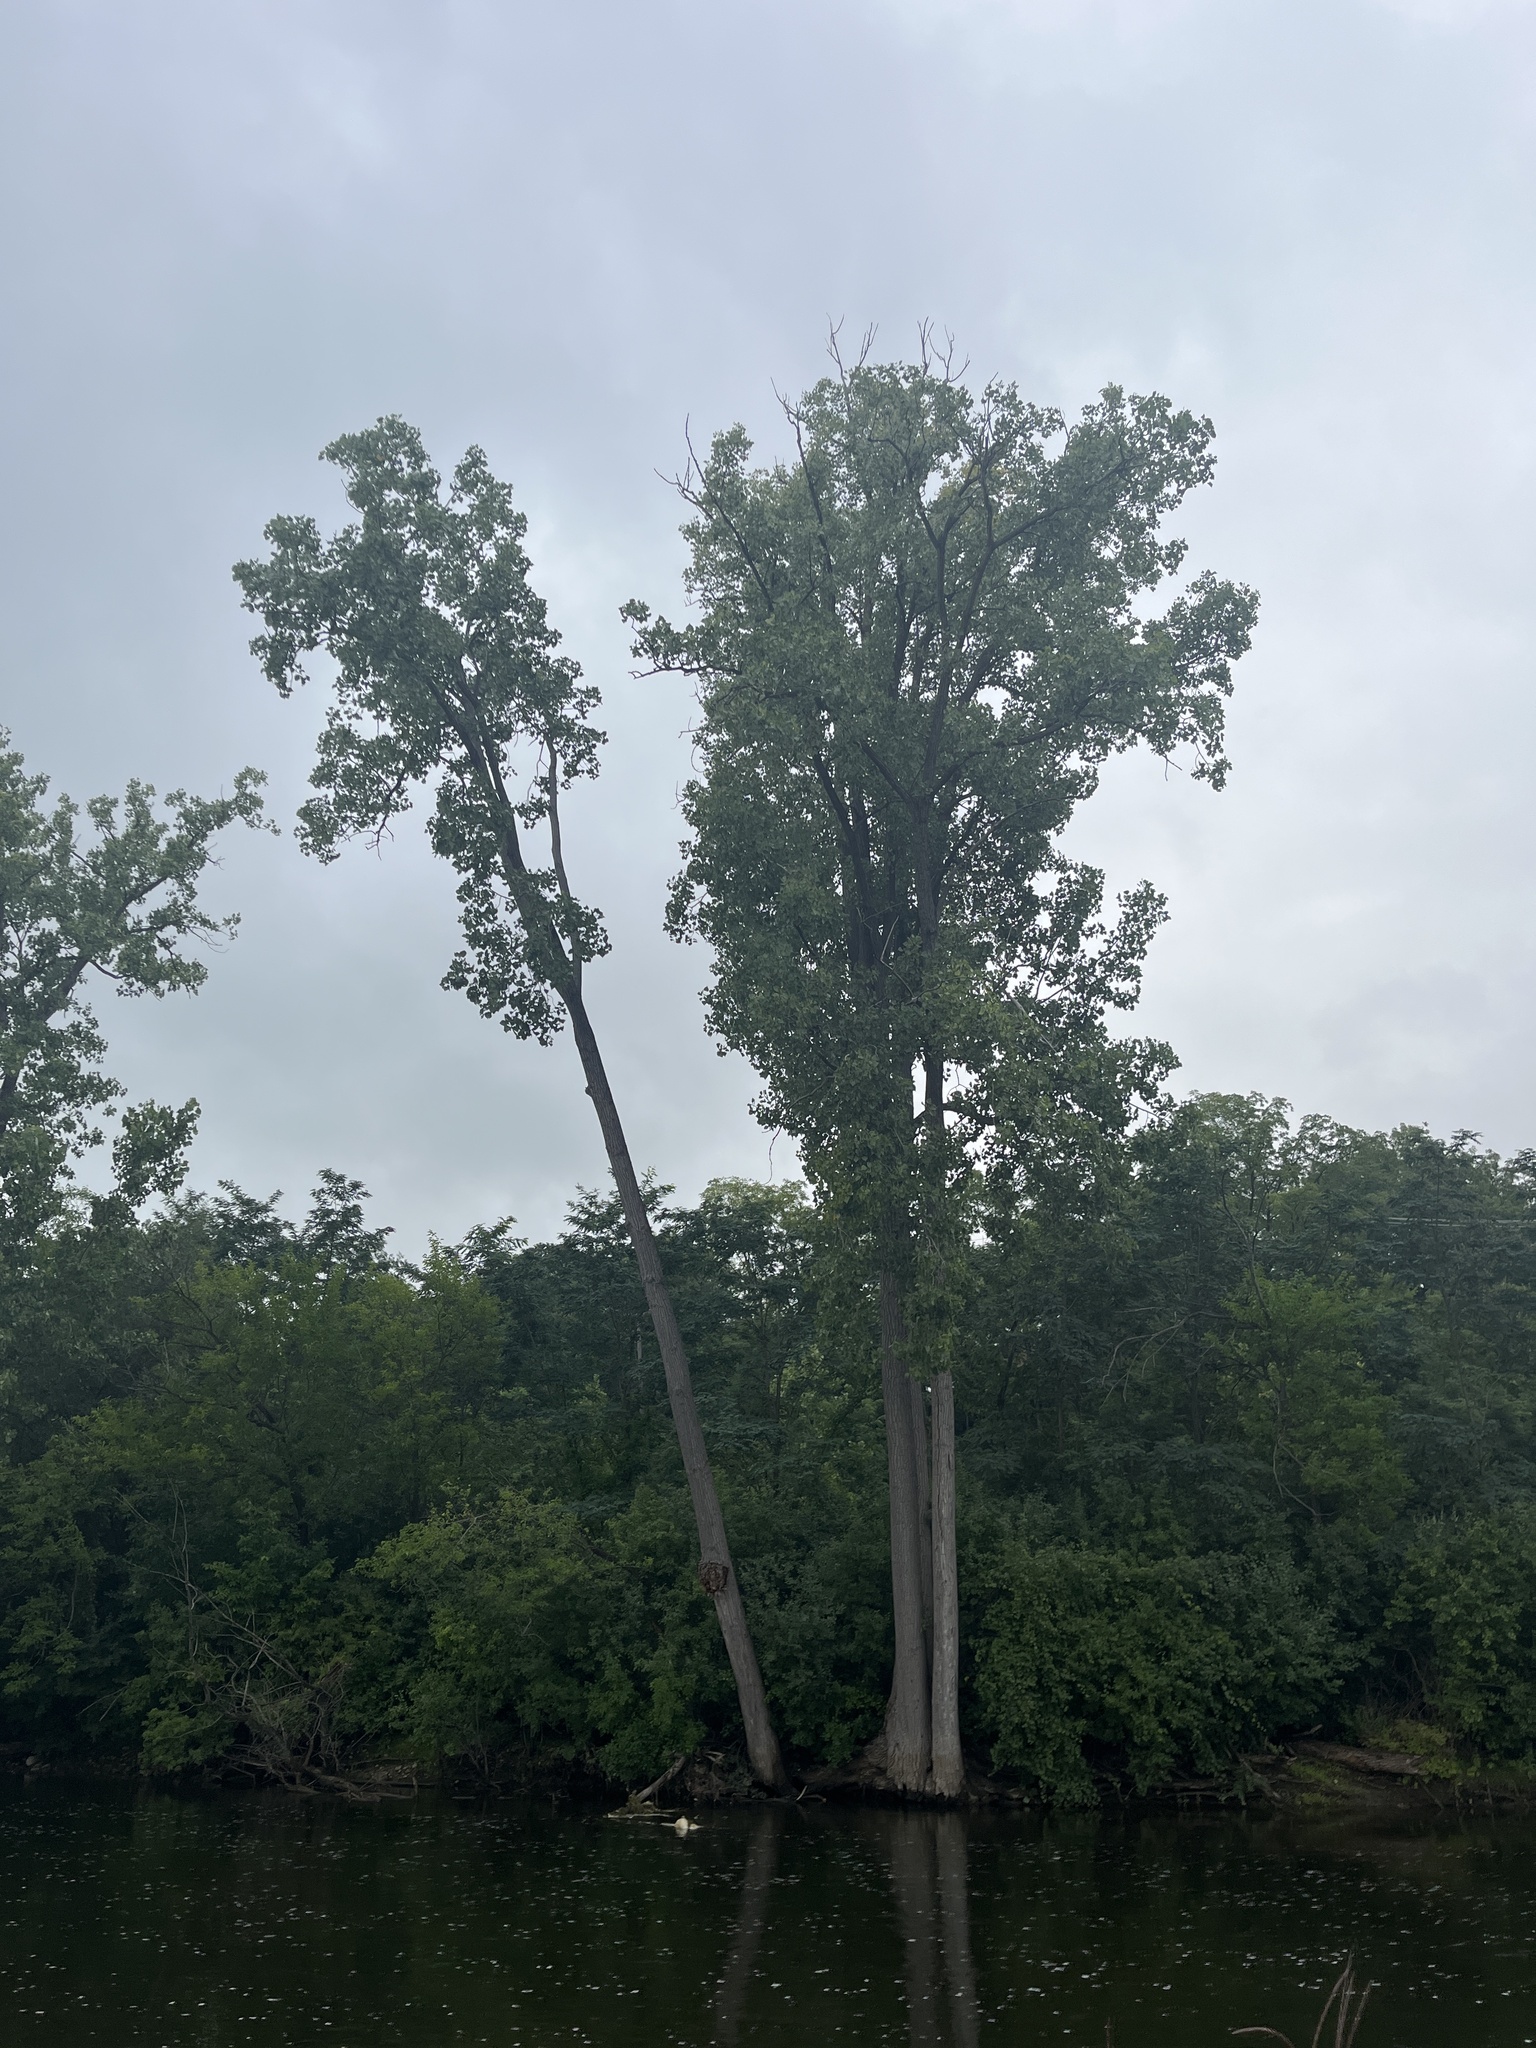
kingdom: Plantae
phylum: Tracheophyta
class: Magnoliopsida
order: Malpighiales
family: Salicaceae
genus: Populus
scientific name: Populus deltoides
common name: Eastern cottonwood
